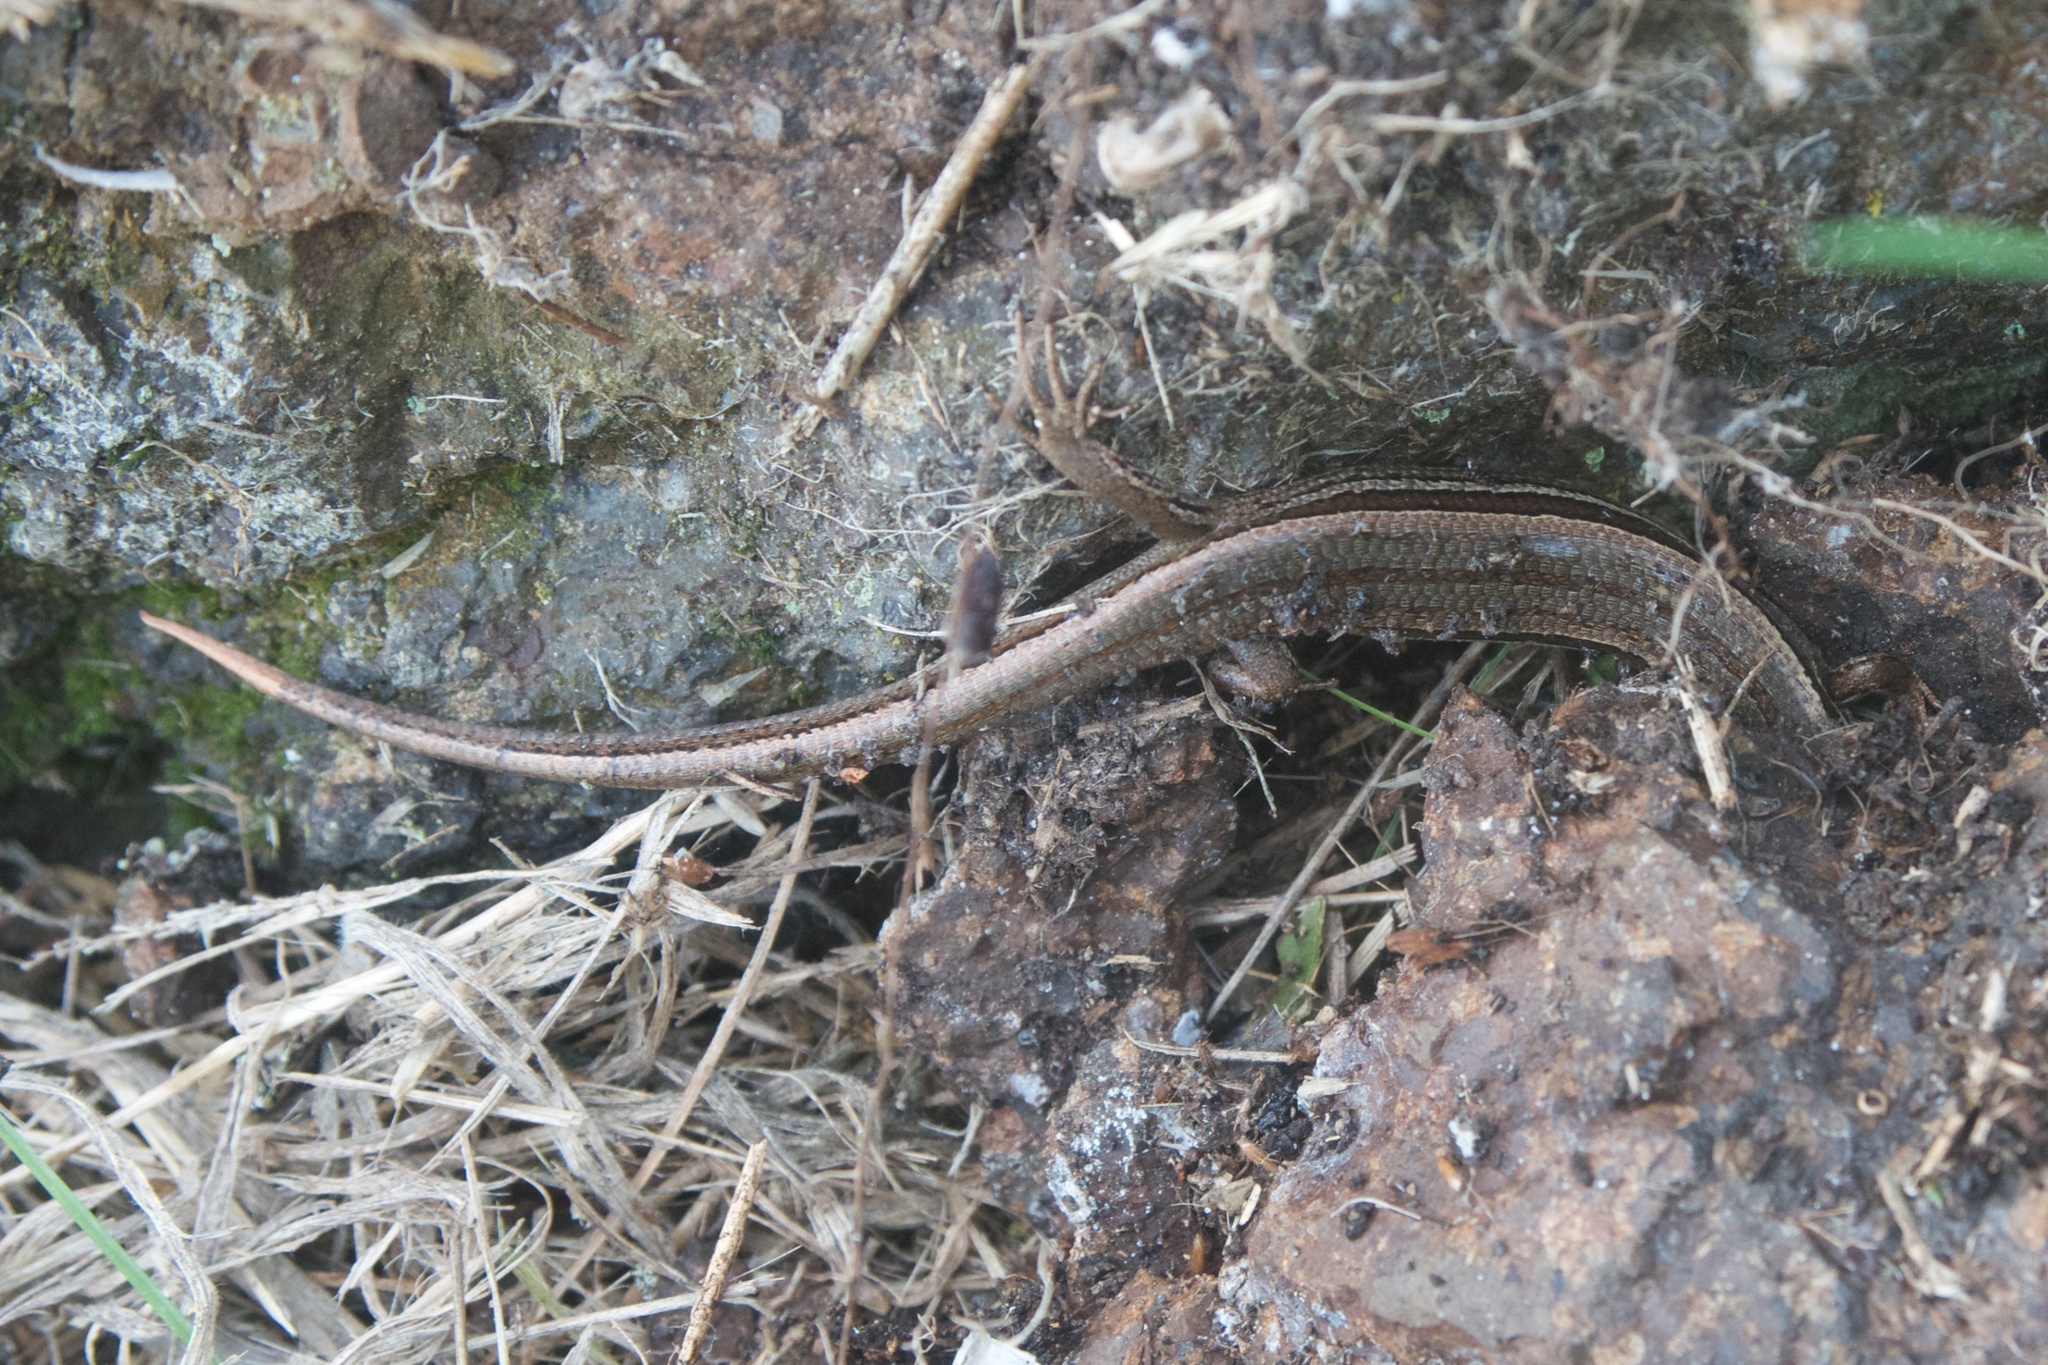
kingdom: Animalia
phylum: Chordata
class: Squamata
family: Scincidae
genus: Oligosoma
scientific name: Oligosoma polychroma
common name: Common new zealand skink
